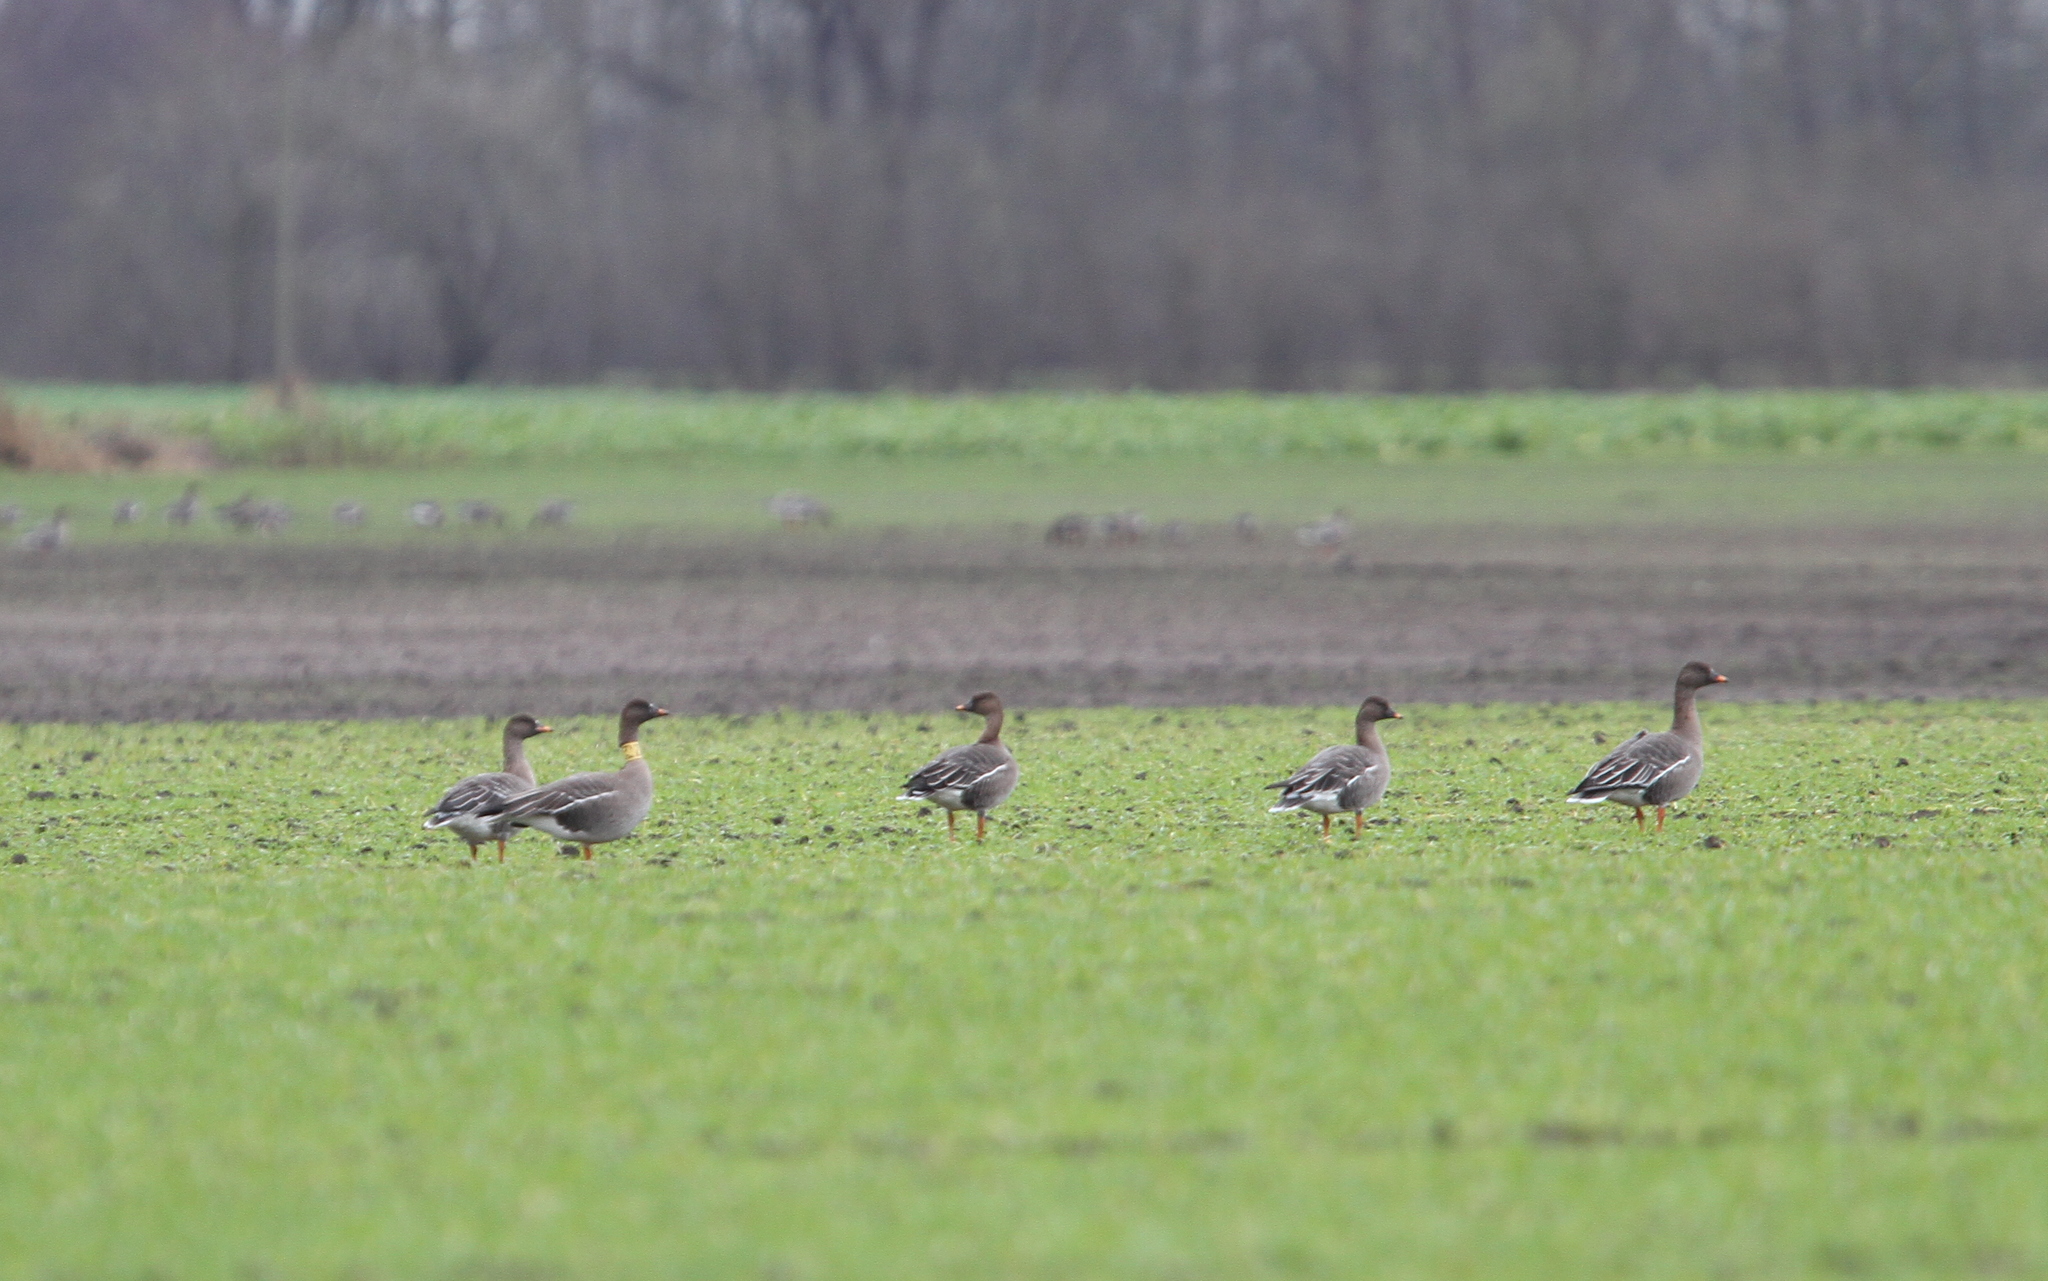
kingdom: Animalia
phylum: Chordata
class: Aves
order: Anseriformes
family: Anatidae
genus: Anser
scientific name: Anser serrirostris
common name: Tundra bean goose
